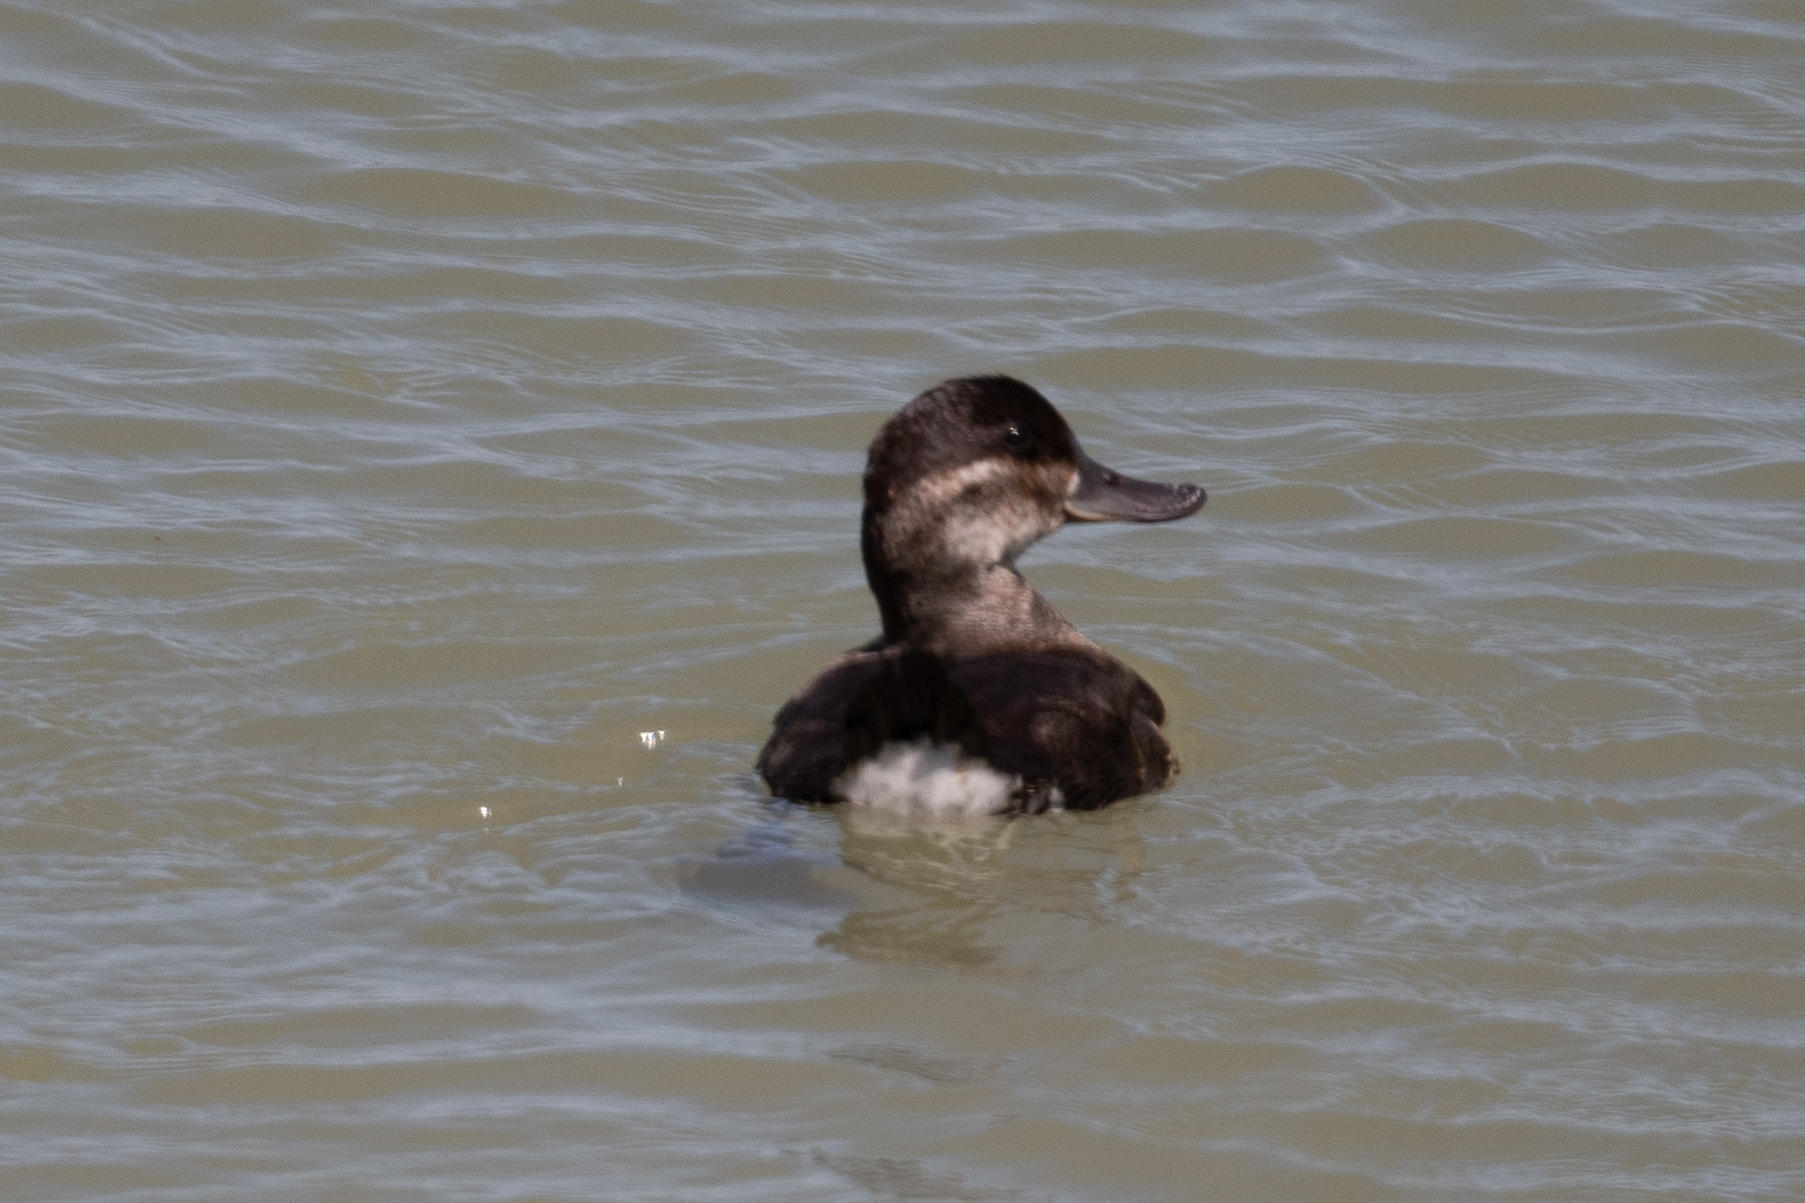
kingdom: Animalia
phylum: Chordata
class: Aves
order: Anseriformes
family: Anatidae
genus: Oxyura
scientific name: Oxyura jamaicensis
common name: Ruddy duck
